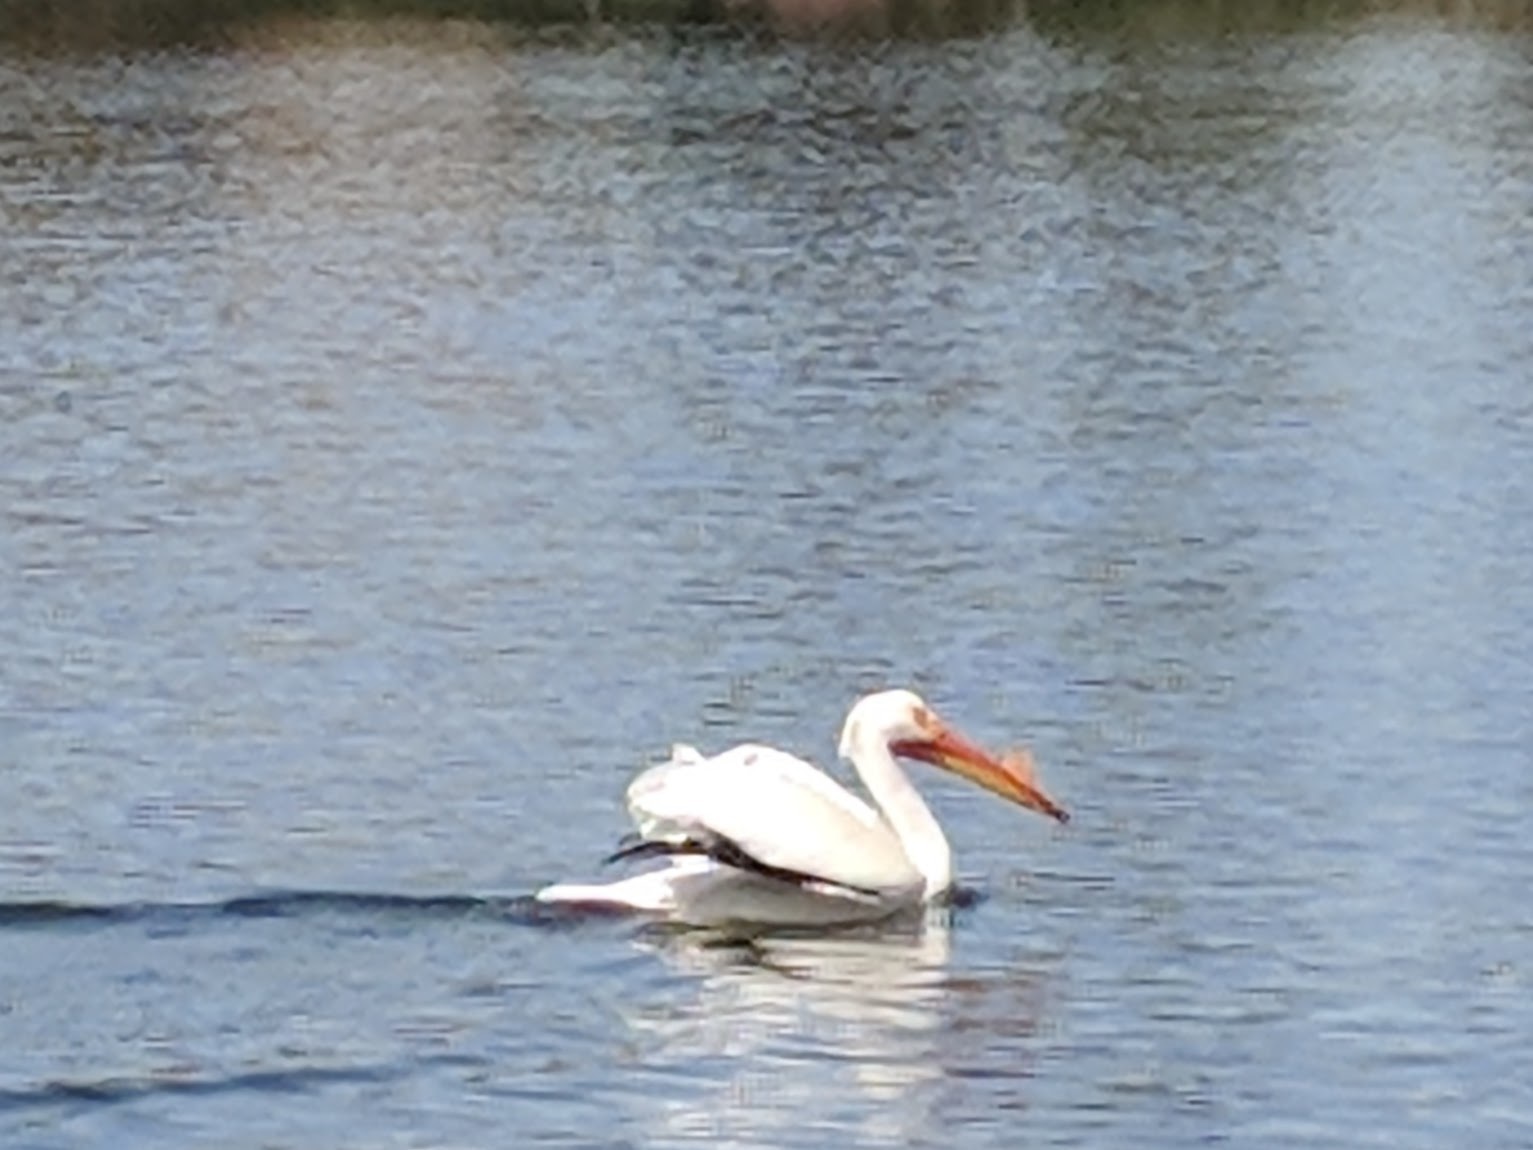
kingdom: Animalia
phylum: Chordata
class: Aves
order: Pelecaniformes
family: Pelecanidae
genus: Pelecanus
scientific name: Pelecanus erythrorhynchos
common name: American white pelican
